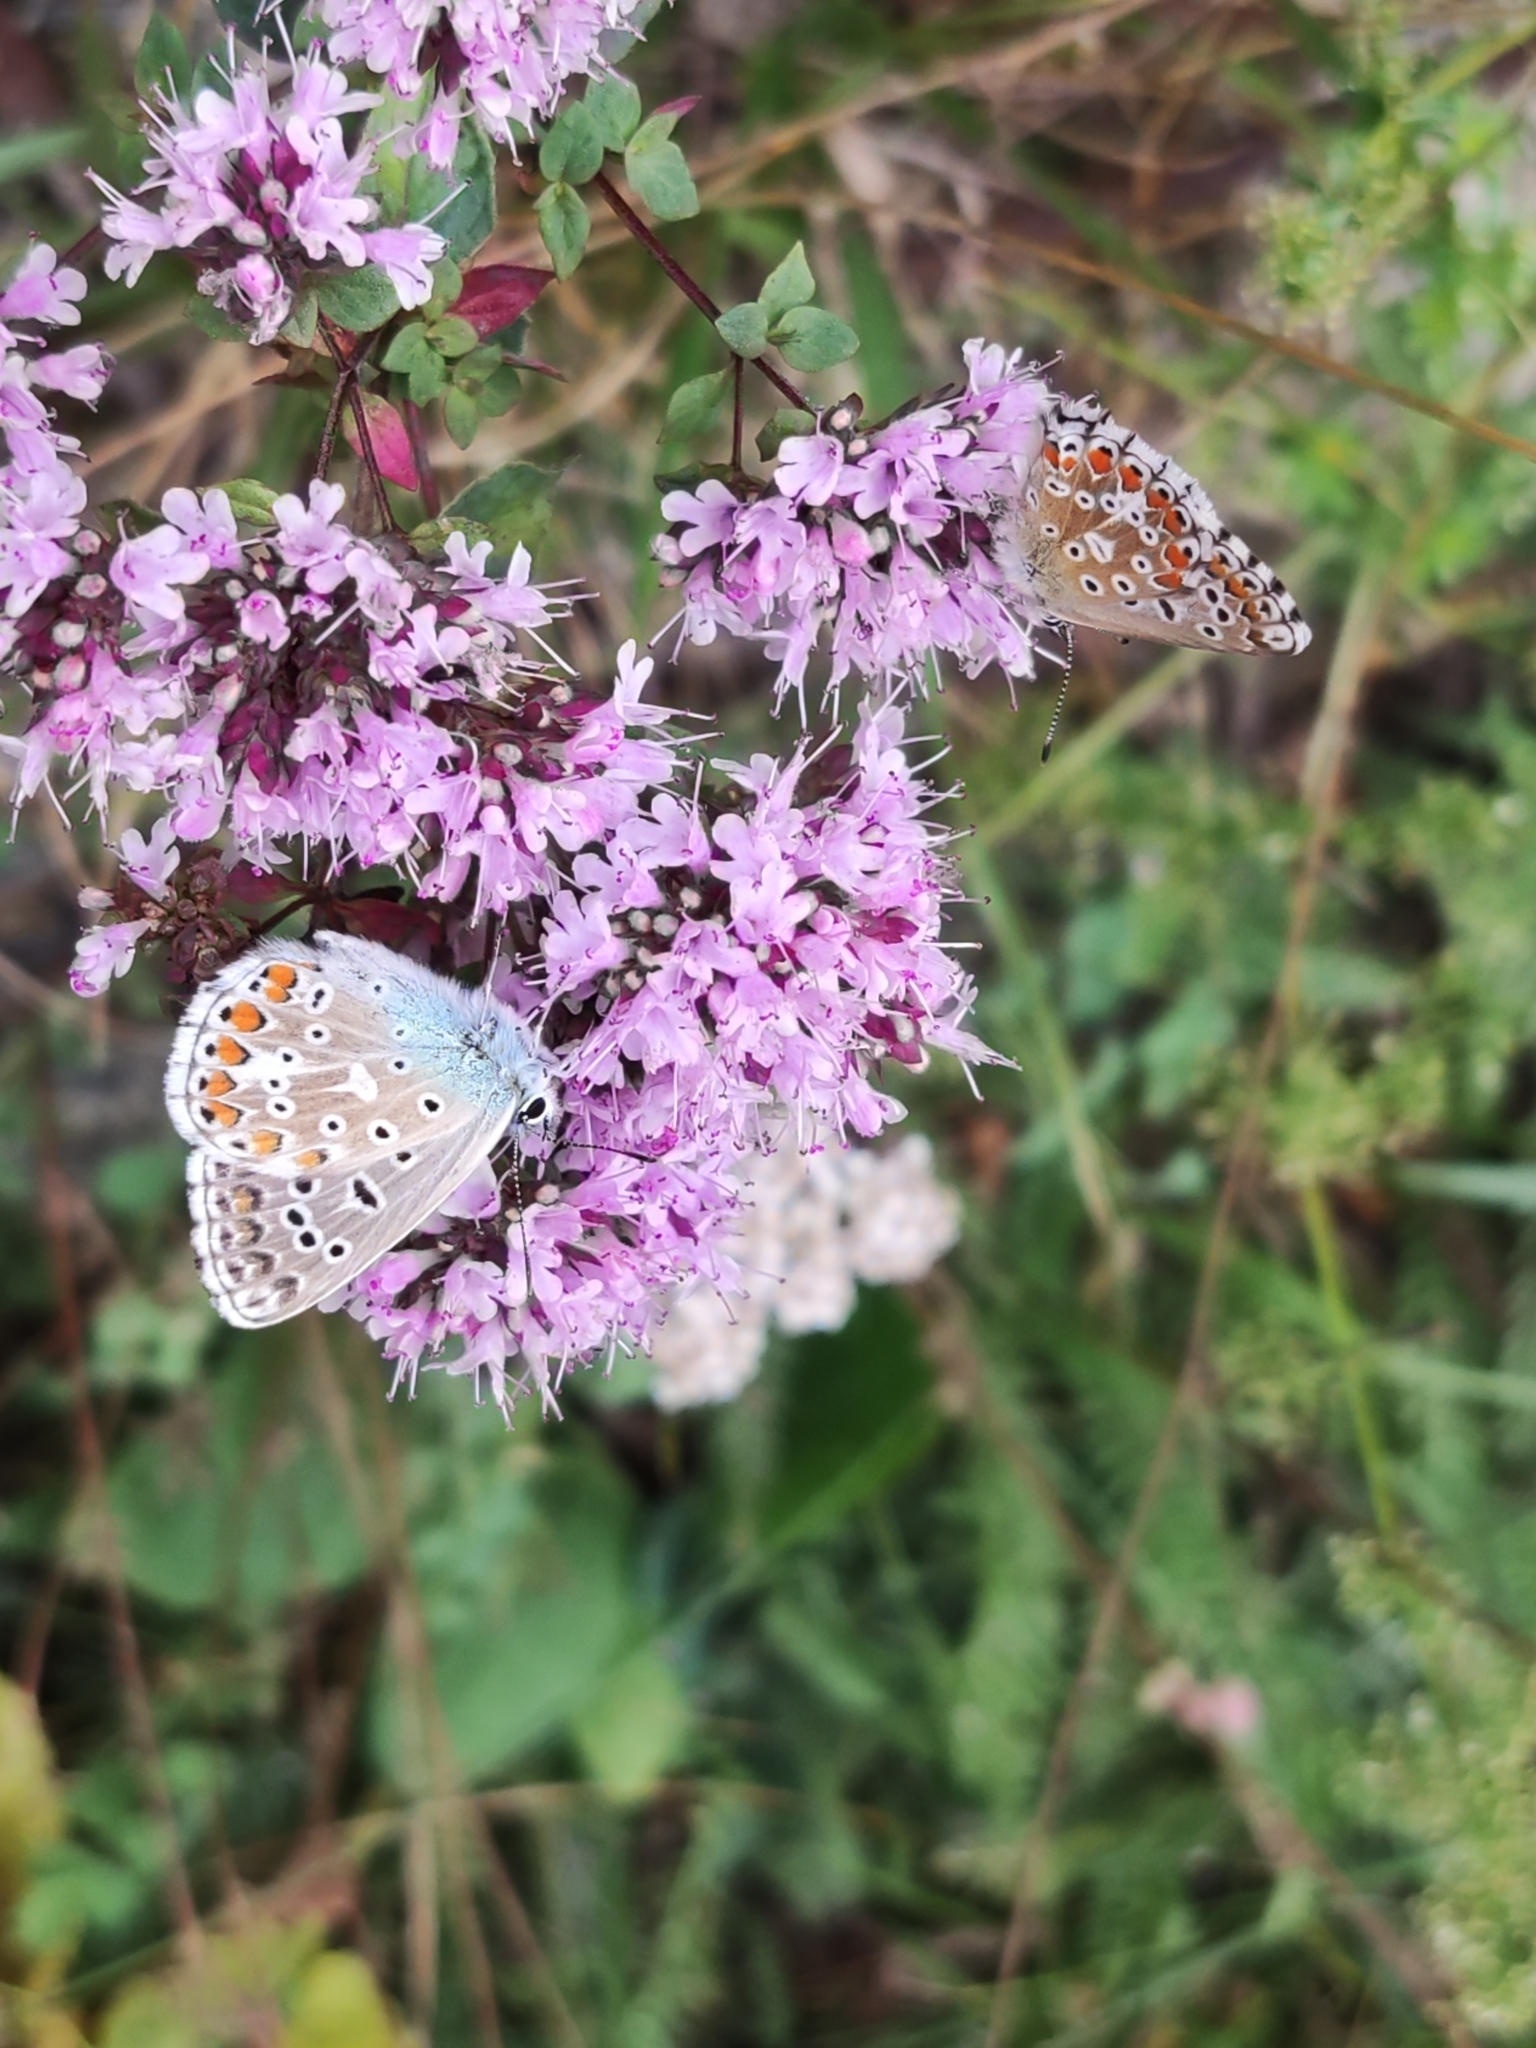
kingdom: Plantae
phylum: Tracheophyta
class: Magnoliopsida
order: Lamiales
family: Lamiaceae
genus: Origanum
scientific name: Origanum vulgare
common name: Wild marjoram
